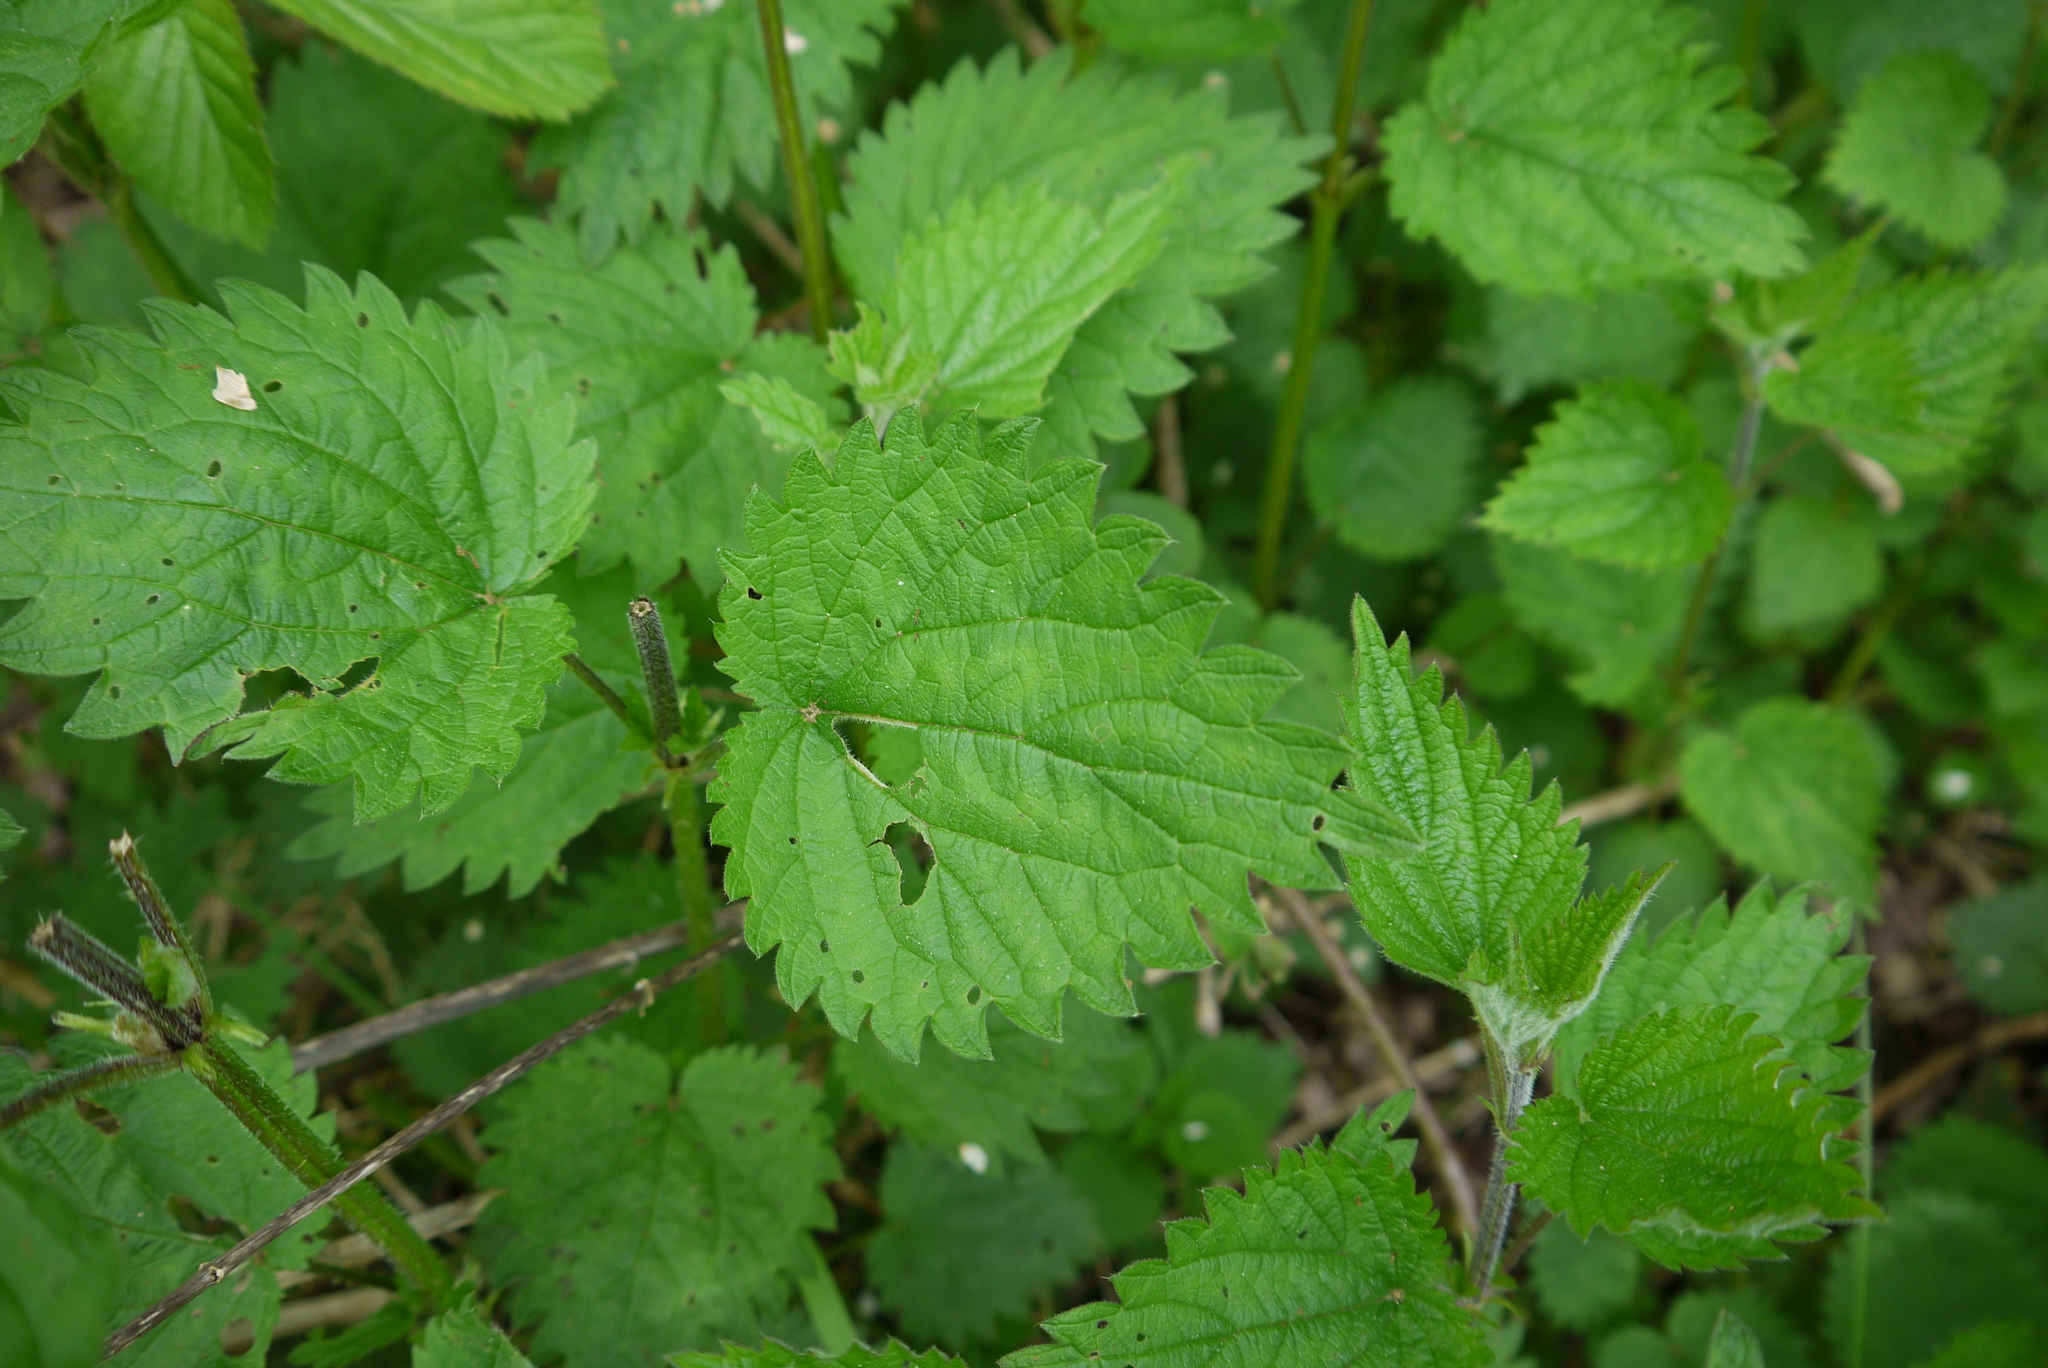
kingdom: Plantae
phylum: Tracheophyta
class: Magnoliopsida
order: Rosales
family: Urticaceae
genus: Urtica
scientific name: Urtica dioica
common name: Common nettle
